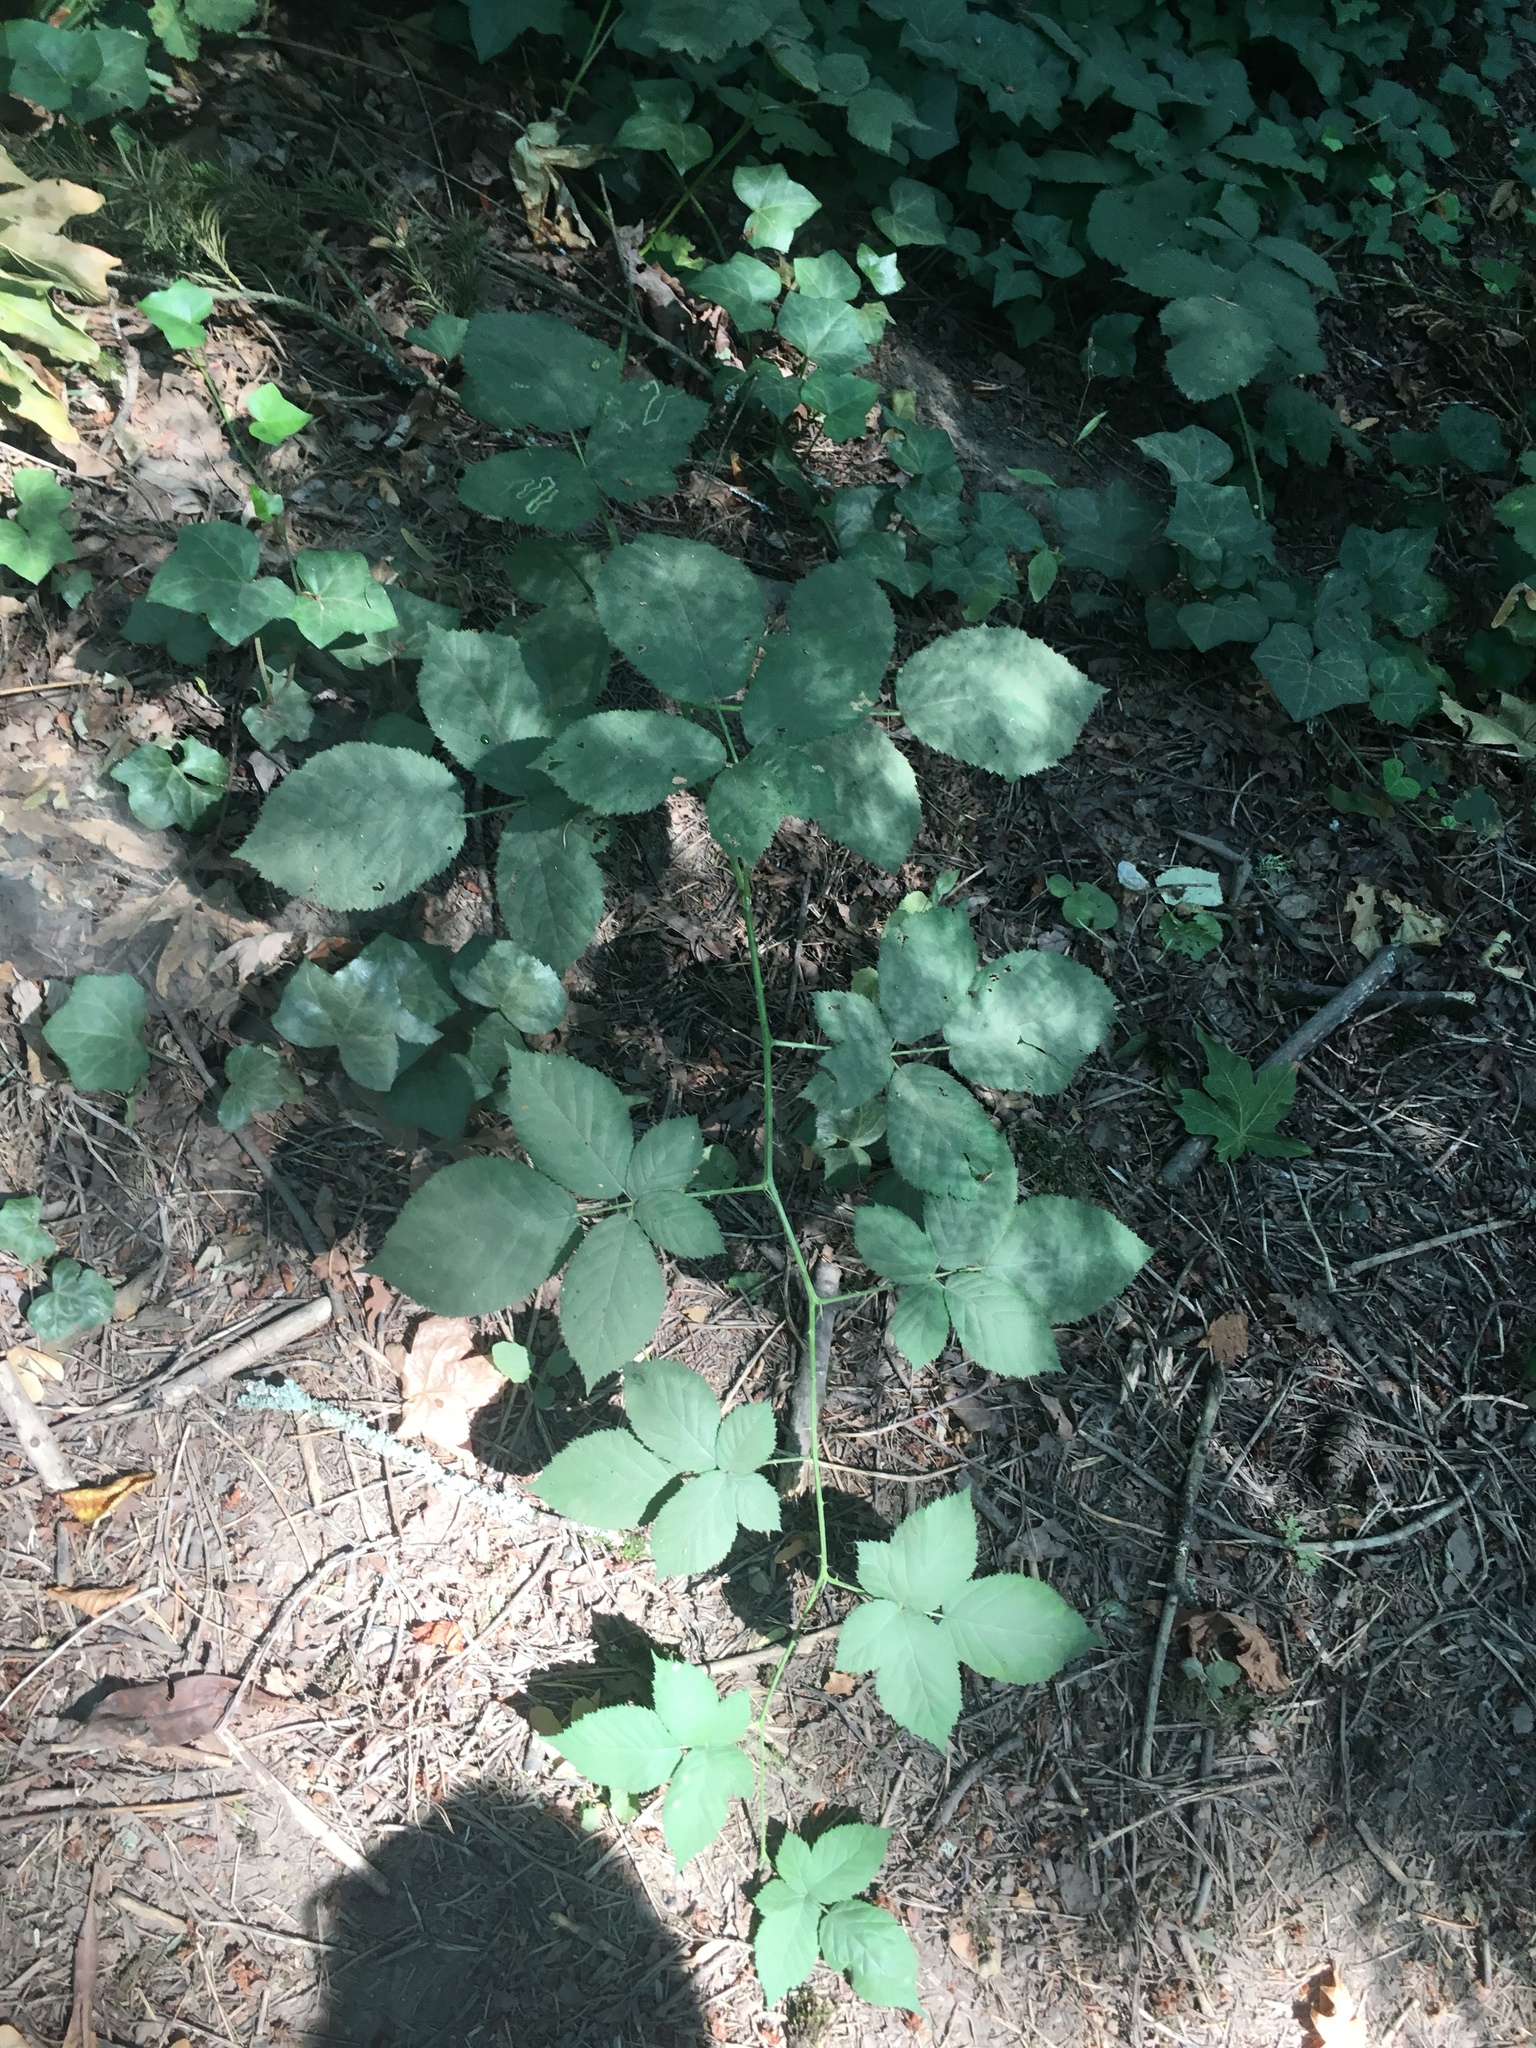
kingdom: Plantae
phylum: Tracheophyta
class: Magnoliopsida
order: Rosales
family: Rosaceae
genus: Rubus
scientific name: Rubus armeniacus
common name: Himalayan blackberry
